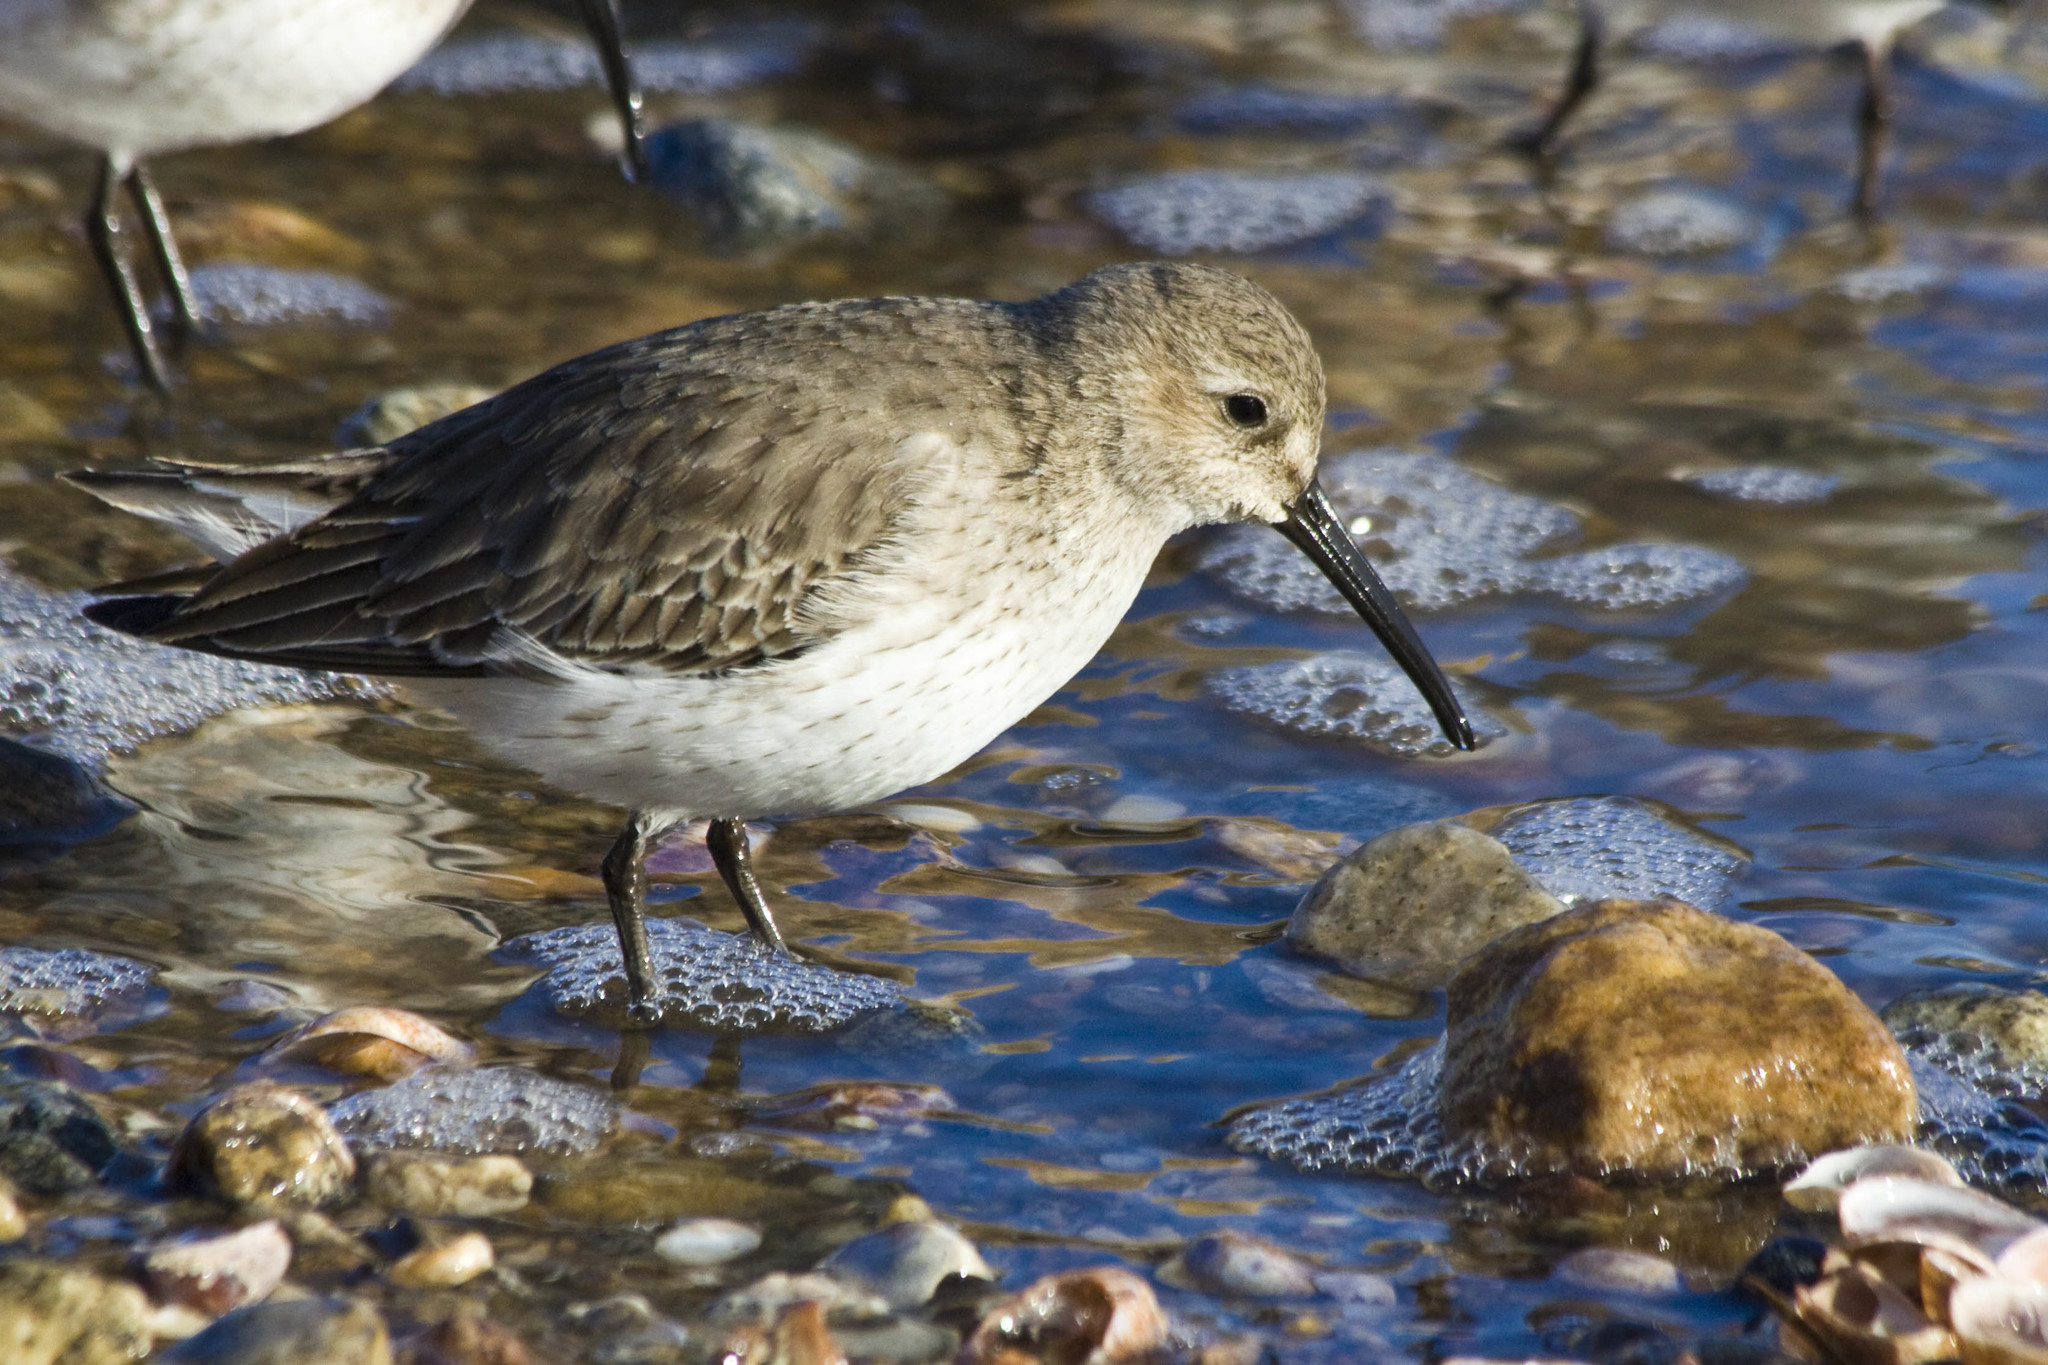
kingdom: Animalia
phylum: Chordata
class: Aves
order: Charadriiformes
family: Scolopacidae
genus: Calidris
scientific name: Calidris alpina
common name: Dunlin
